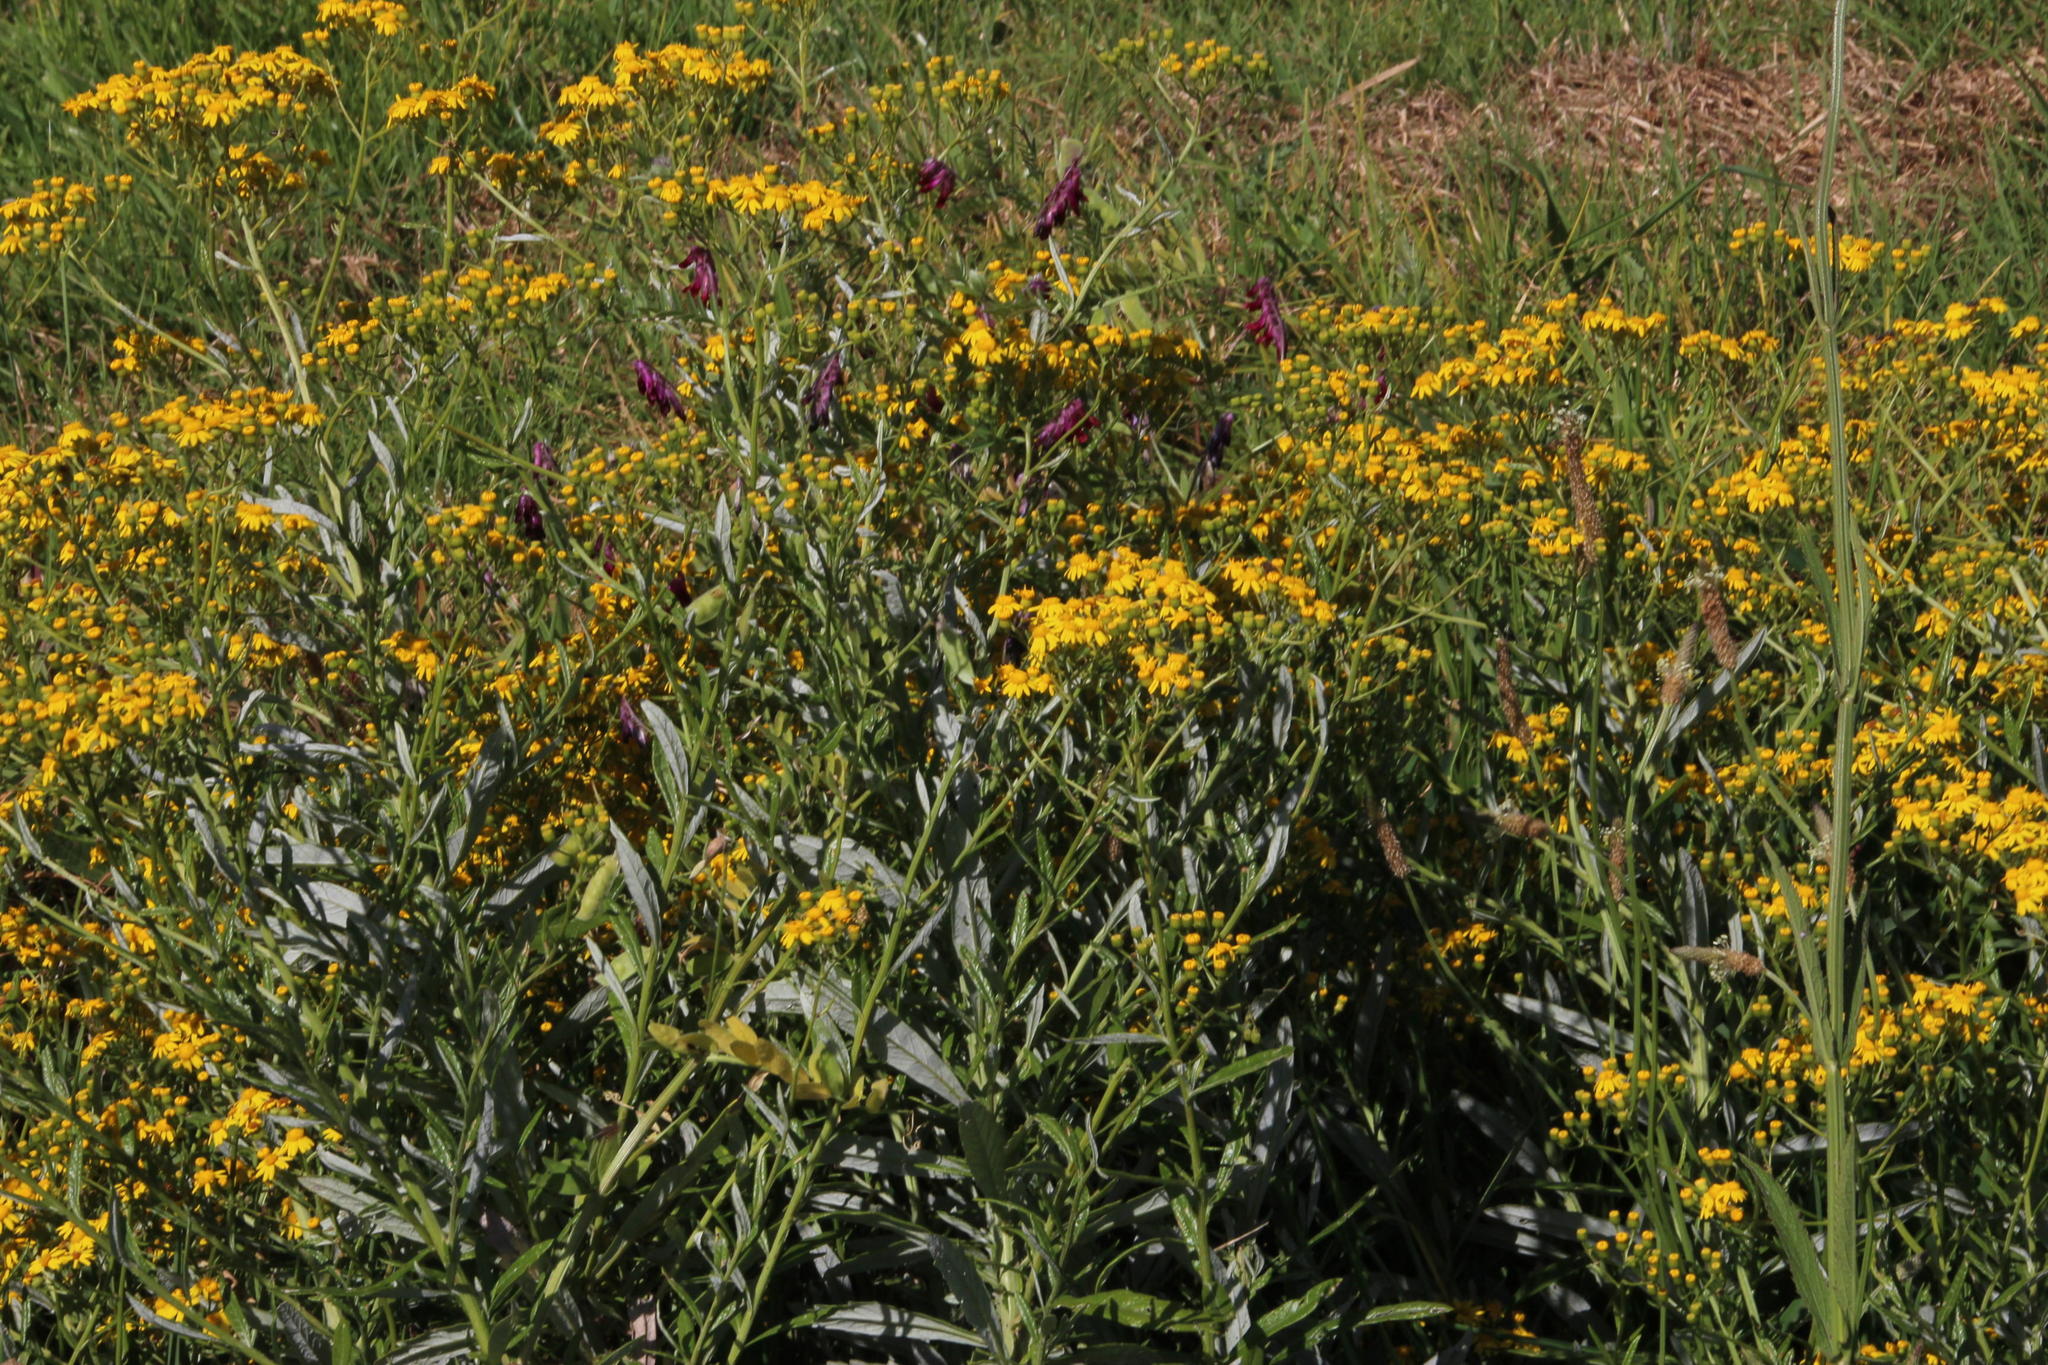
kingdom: Plantae
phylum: Tracheophyta
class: Magnoliopsida
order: Asterales
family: Asteraceae
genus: Senecio
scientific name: Senecio pterophorus
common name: Shoddy ragwort
